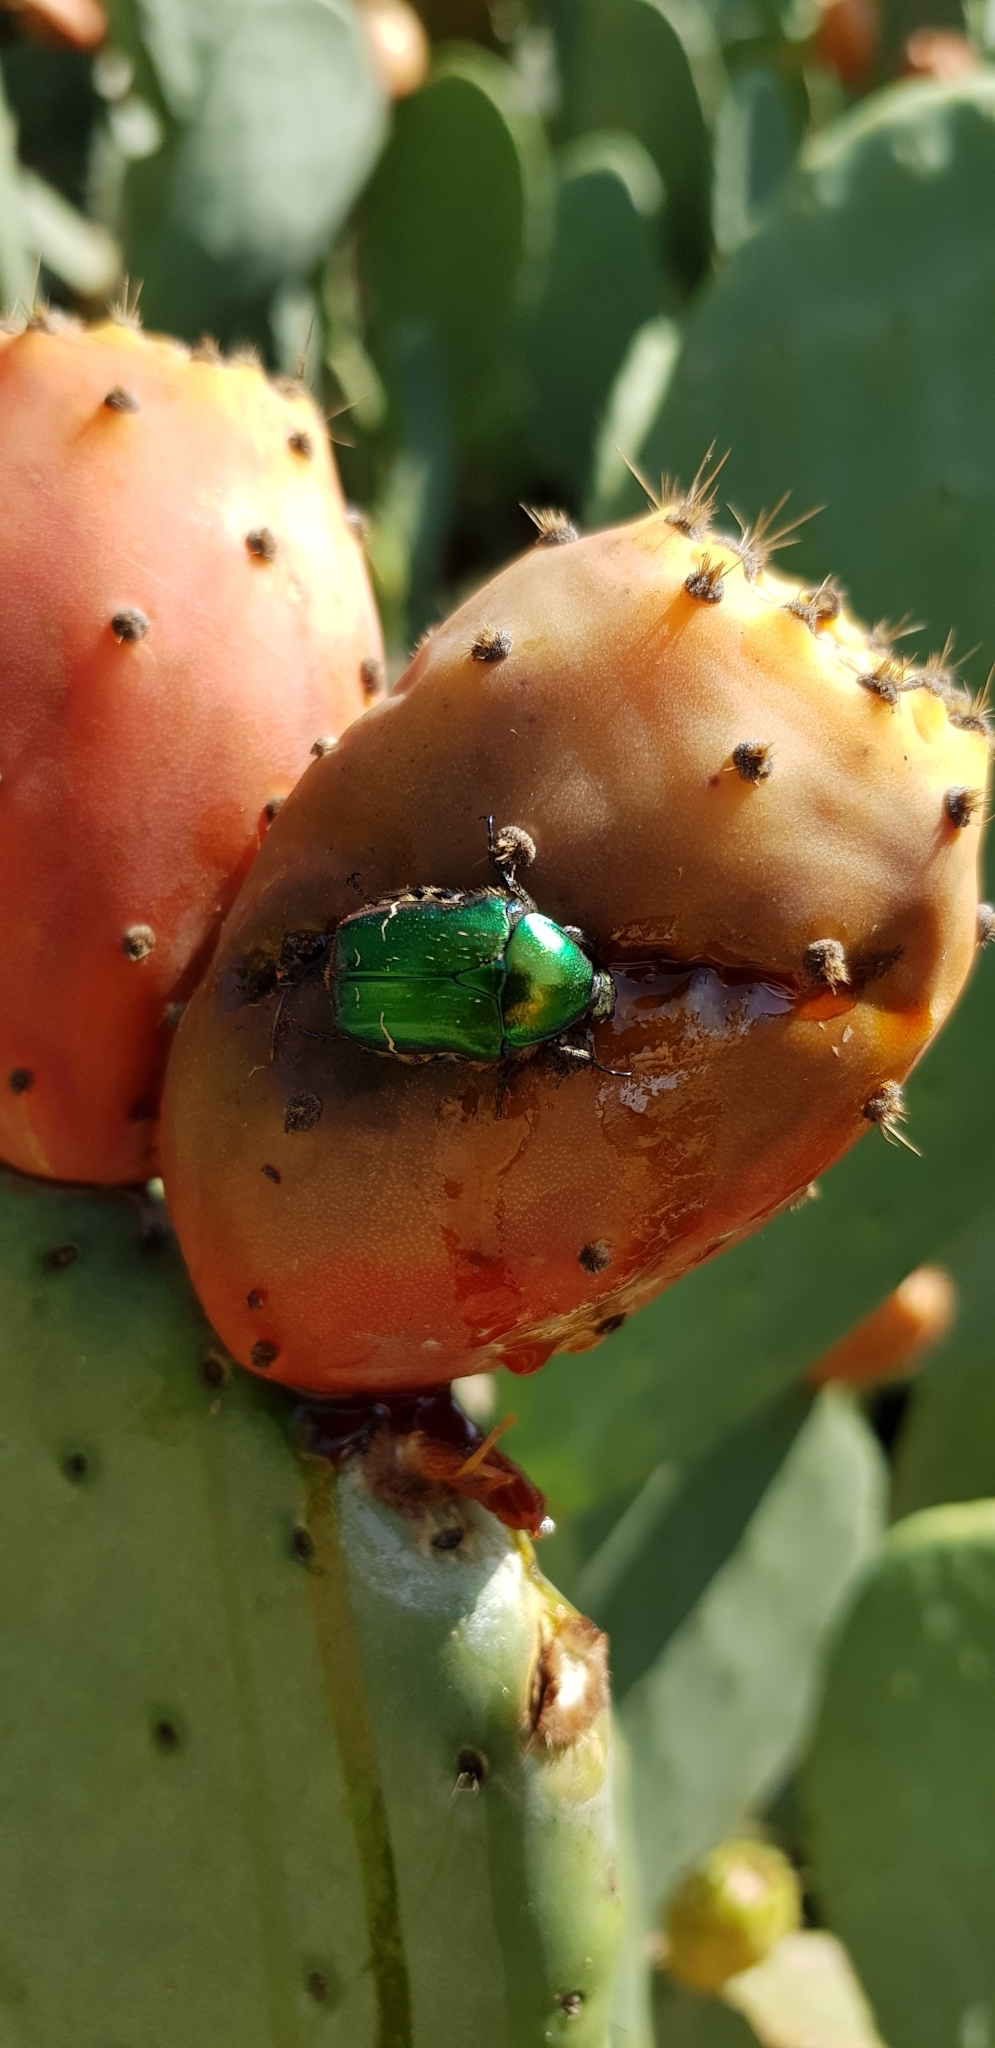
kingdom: Animalia
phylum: Arthropoda
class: Insecta
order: Coleoptera
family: Scarabaeidae
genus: Cetonia
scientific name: Cetonia aurata
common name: Rose chafer
